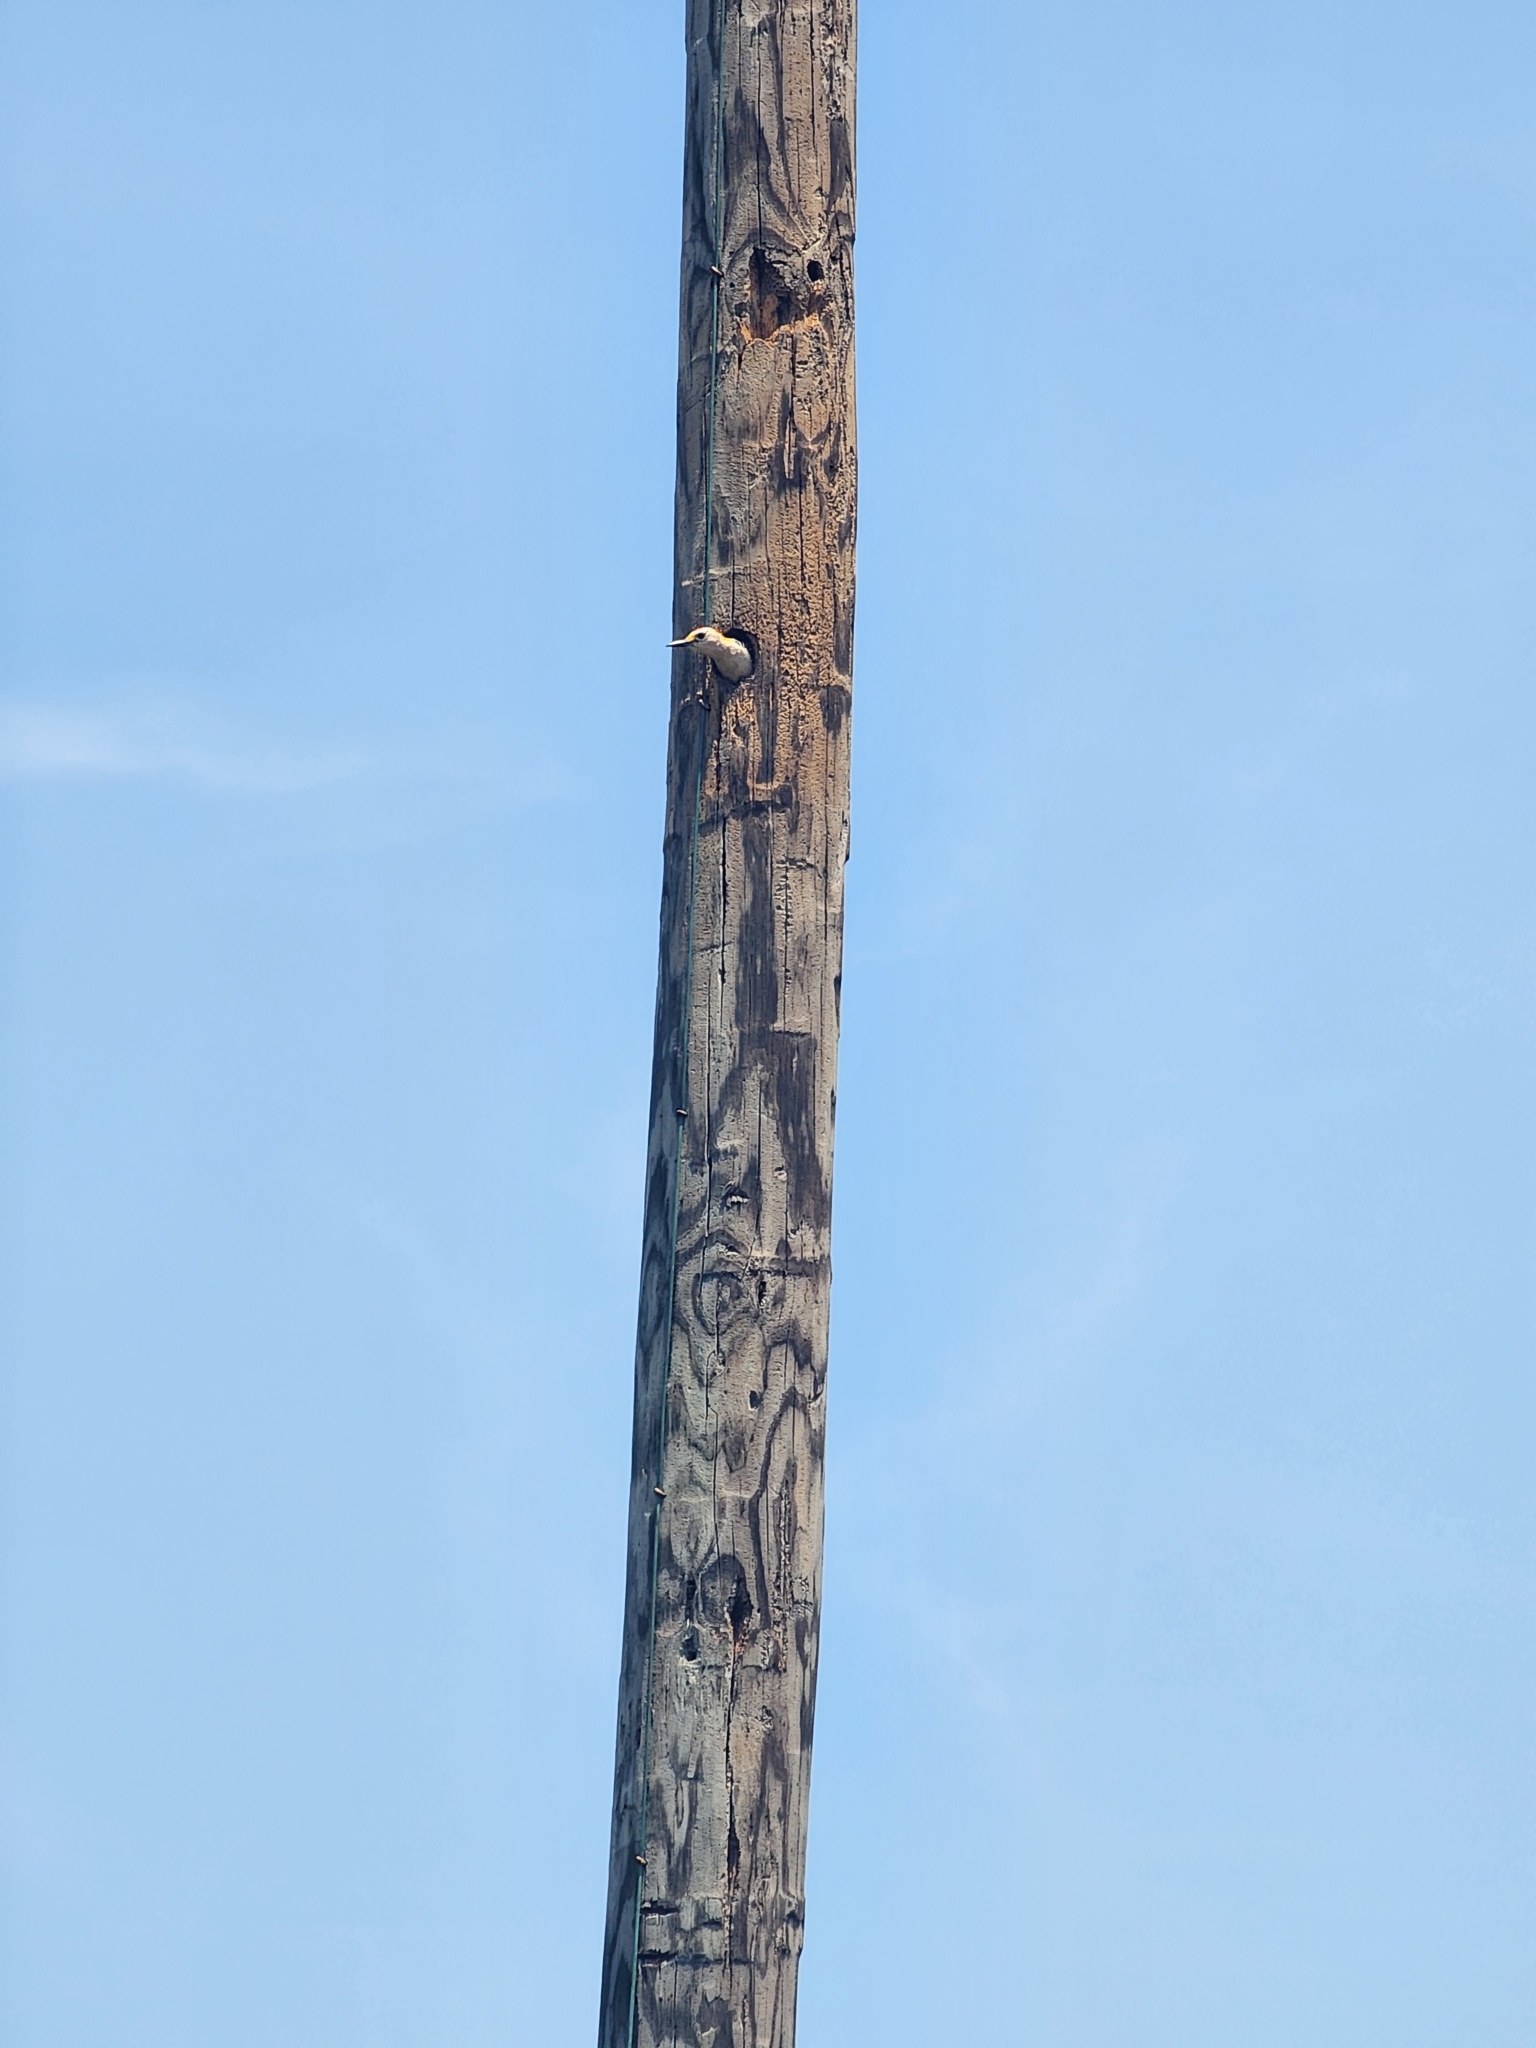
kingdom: Animalia
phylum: Chordata
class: Aves
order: Piciformes
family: Picidae
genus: Melanerpes
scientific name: Melanerpes aurifrons
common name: Golden-fronted woodpecker
